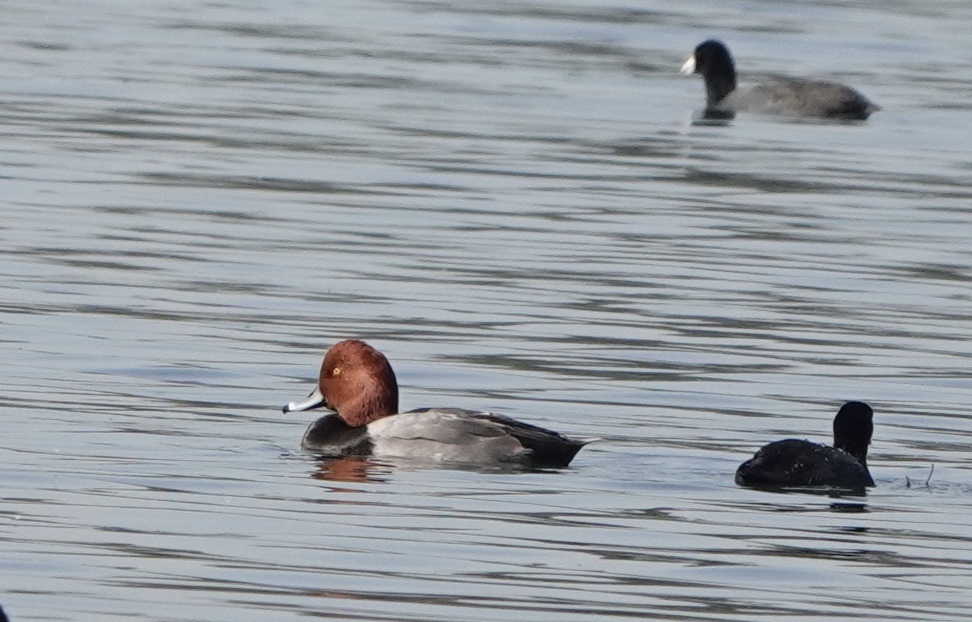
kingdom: Animalia
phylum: Chordata
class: Aves
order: Anseriformes
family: Anatidae
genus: Aythya
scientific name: Aythya americana
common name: Redhead
